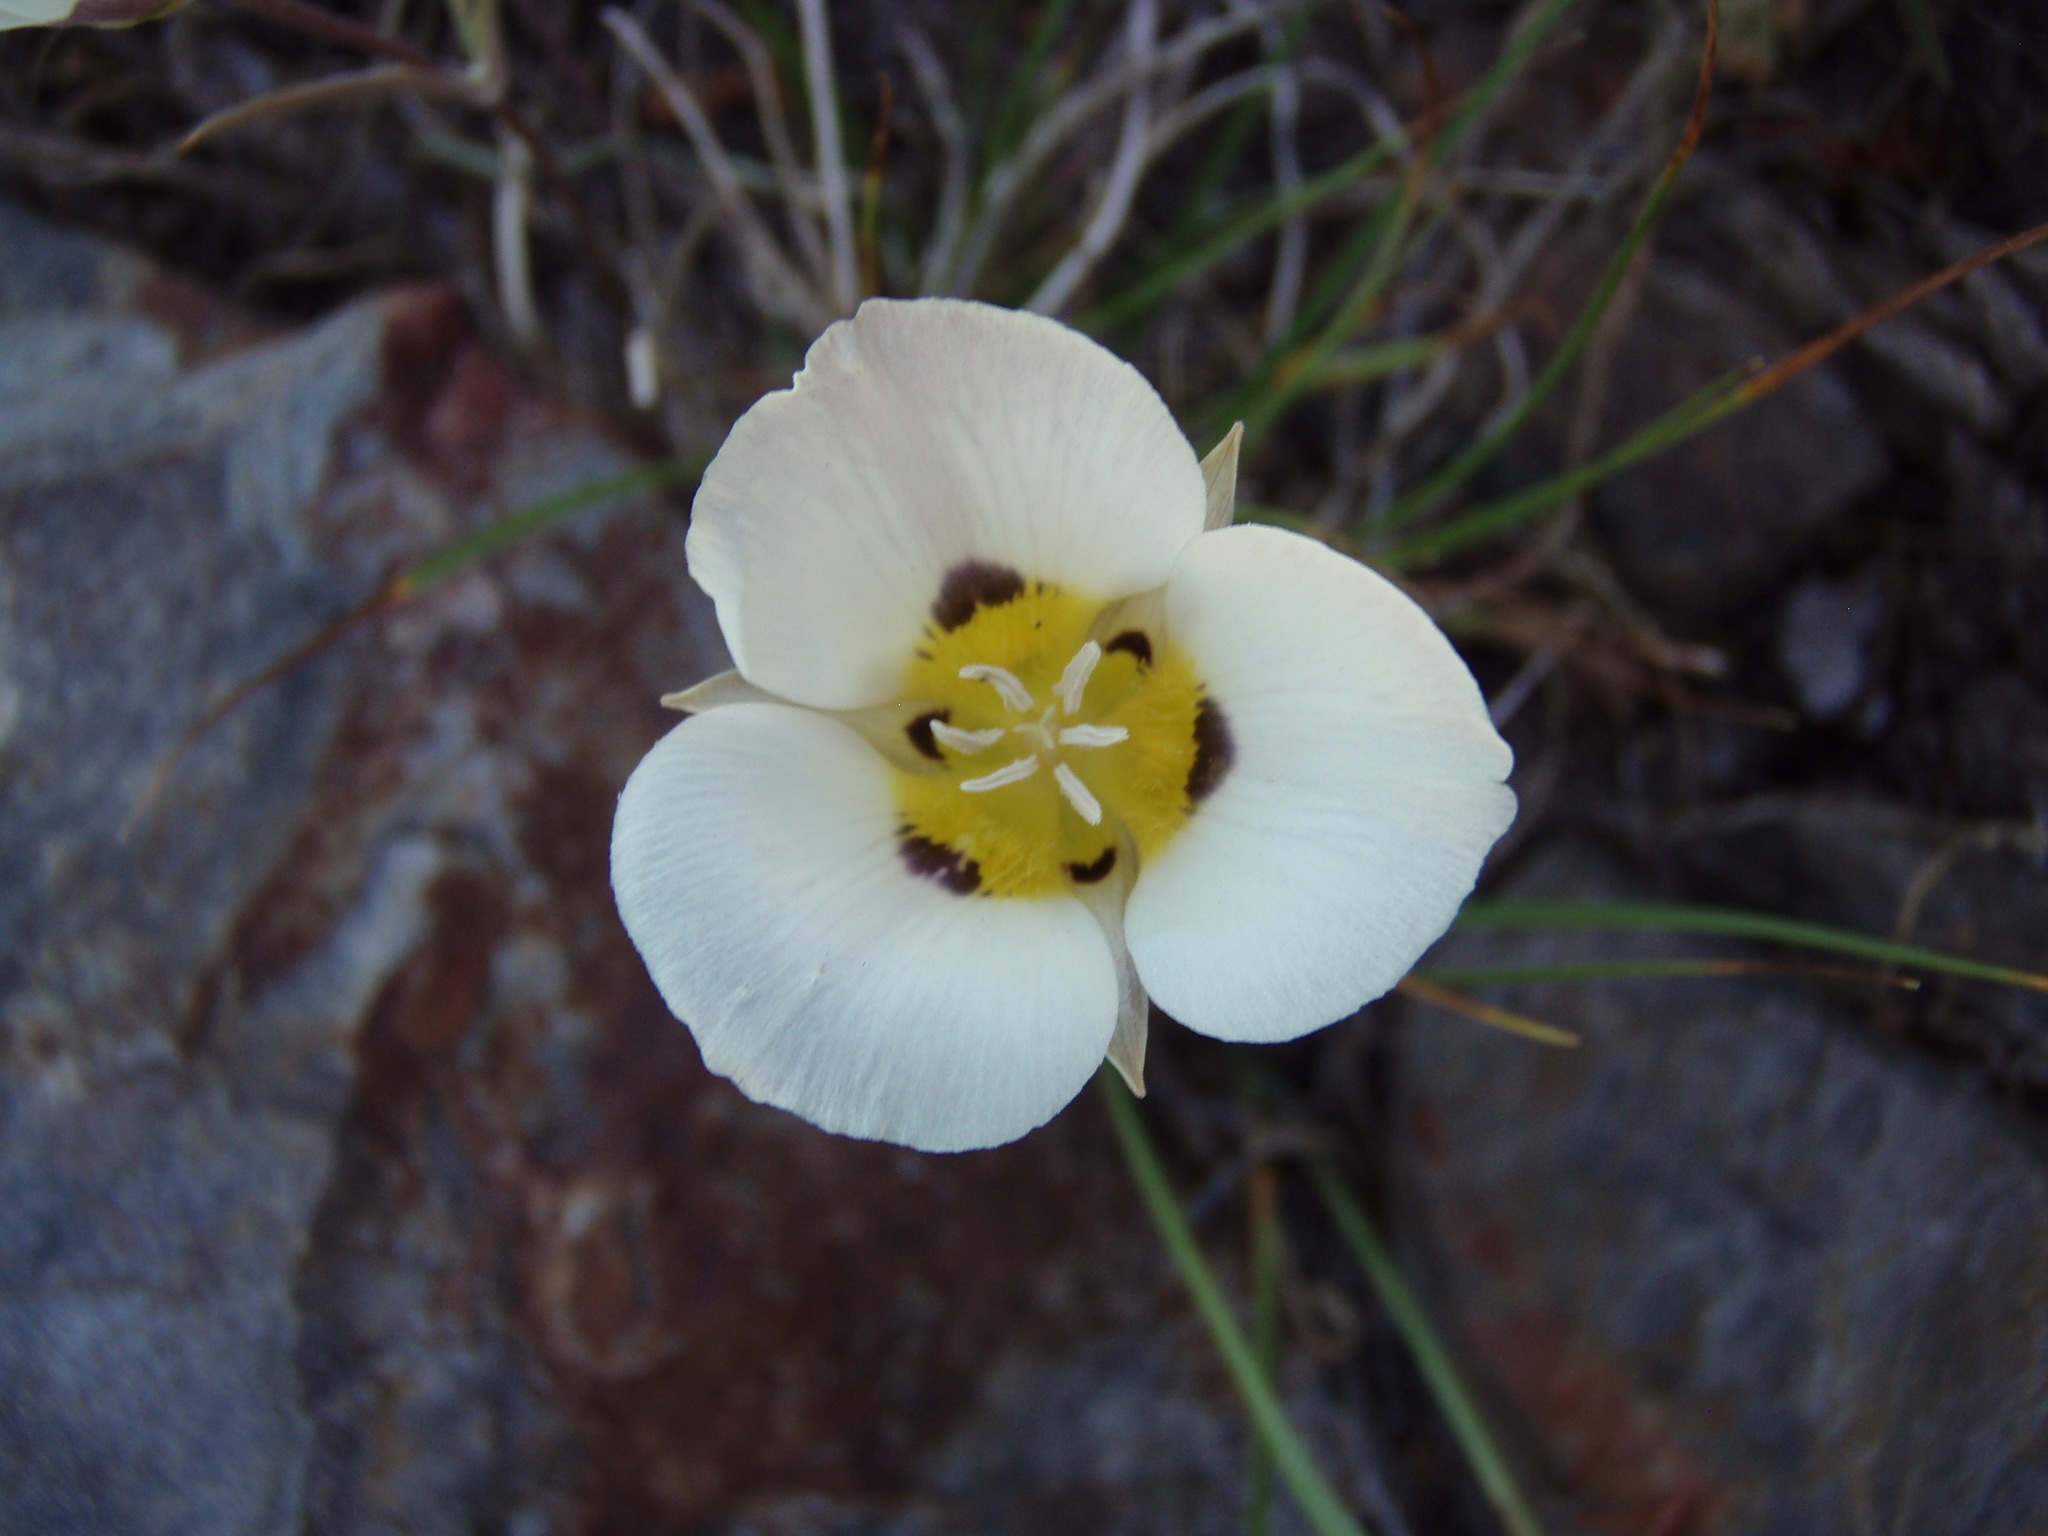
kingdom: Plantae
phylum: Tracheophyta
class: Liliopsida
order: Liliales
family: Liliaceae
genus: Calochortus
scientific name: Calochortus leichtlinii
